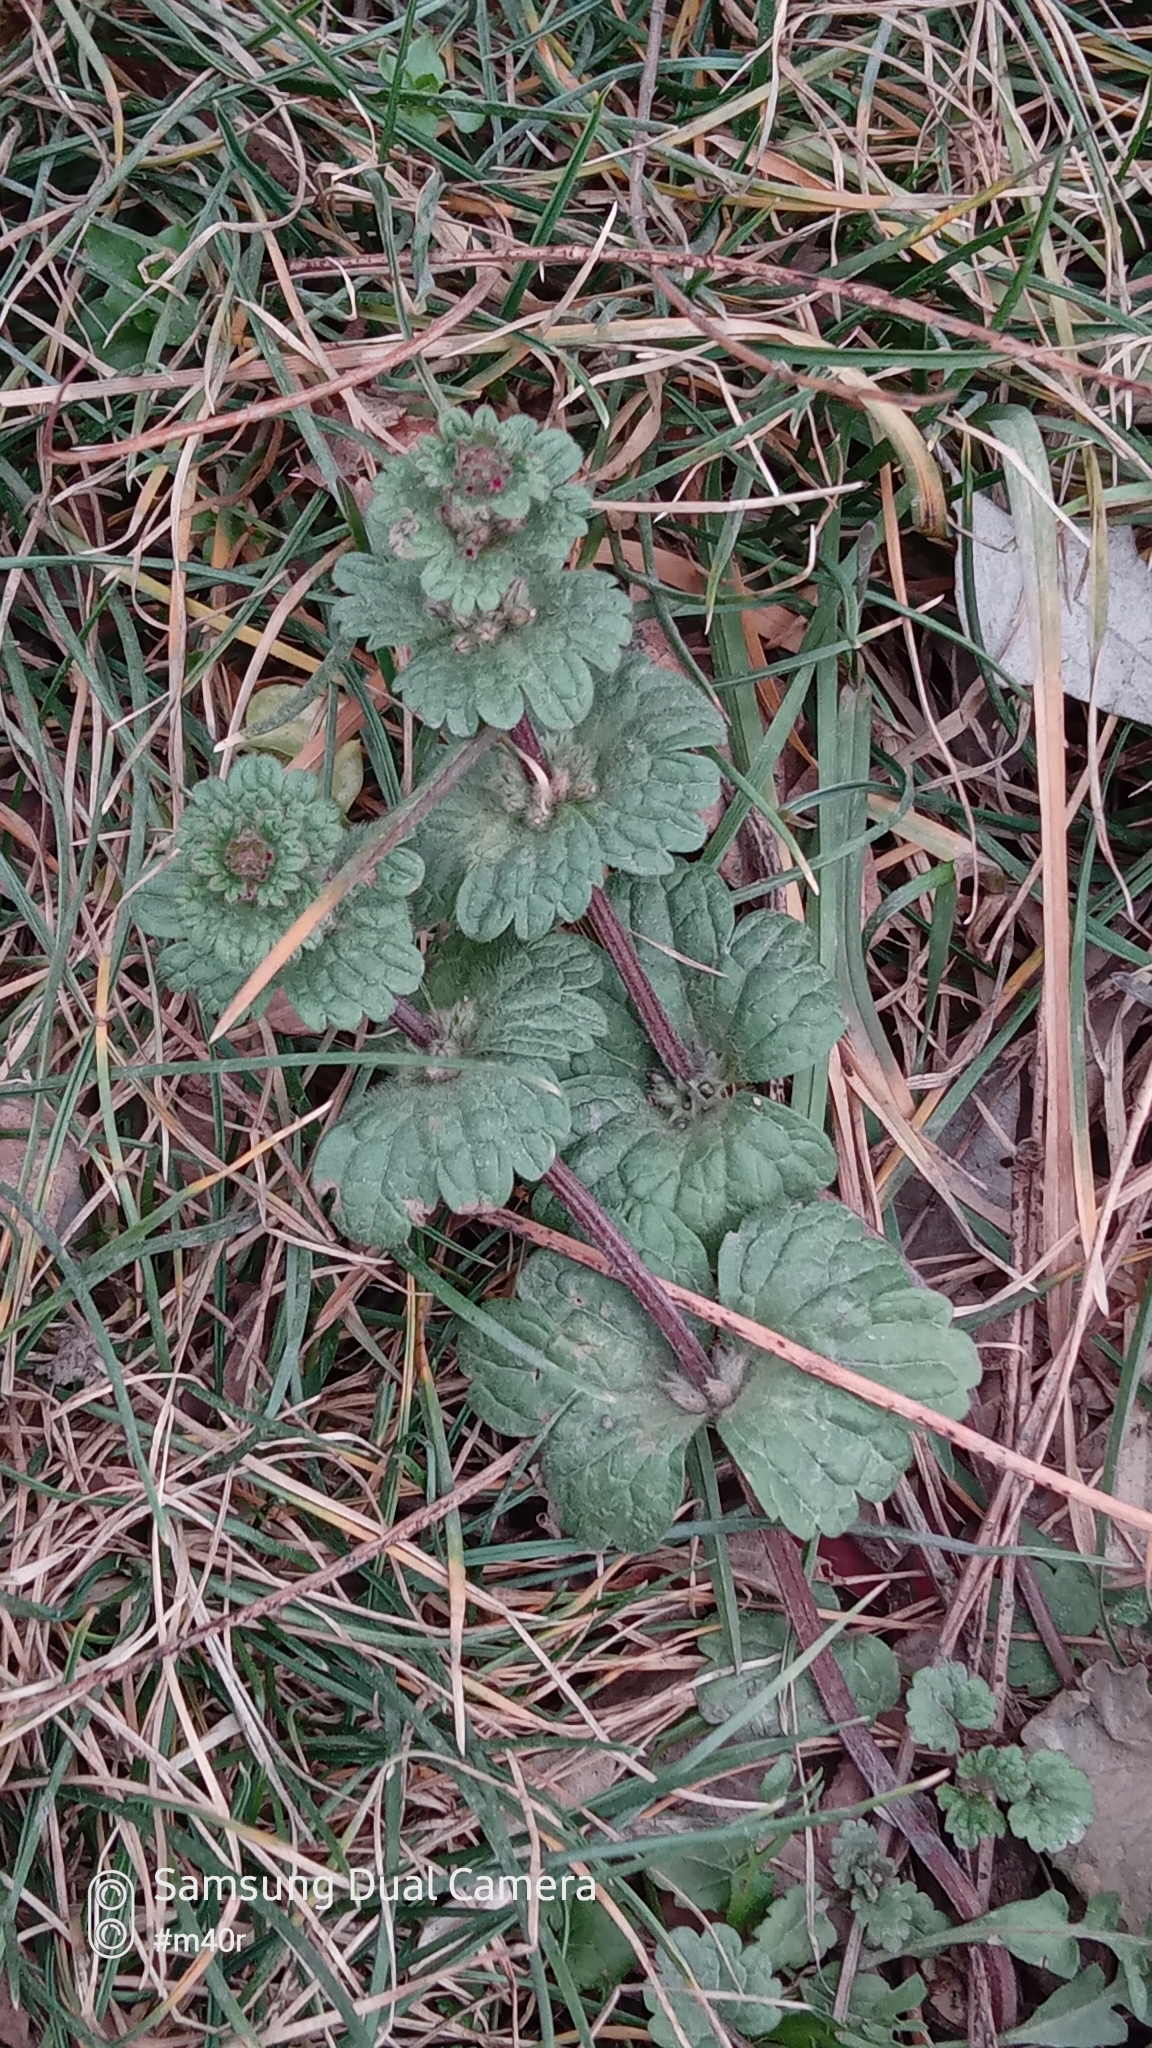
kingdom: Plantae
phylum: Tracheophyta
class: Magnoliopsida
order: Lamiales
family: Lamiaceae
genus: Lamium
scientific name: Lamium amplexicaule
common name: Henbit dead-nettle
